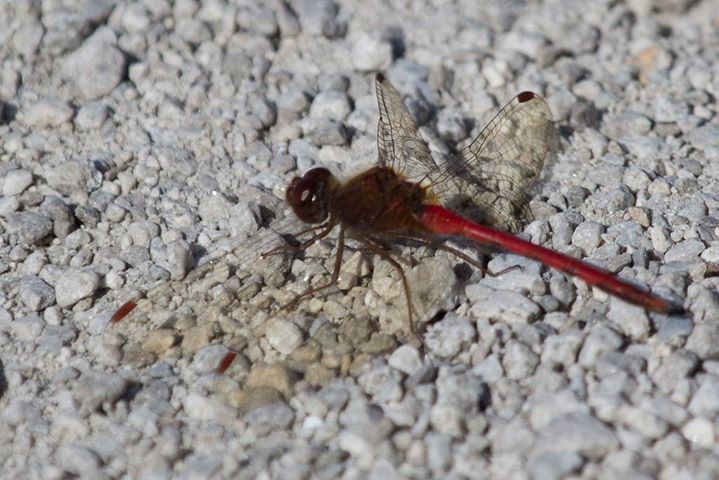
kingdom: Animalia
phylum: Arthropoda
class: Insecta
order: Odonata
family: Libellulidae
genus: Sympetrum
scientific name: Sympetrum vicinum
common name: Autumn meadowhawk
